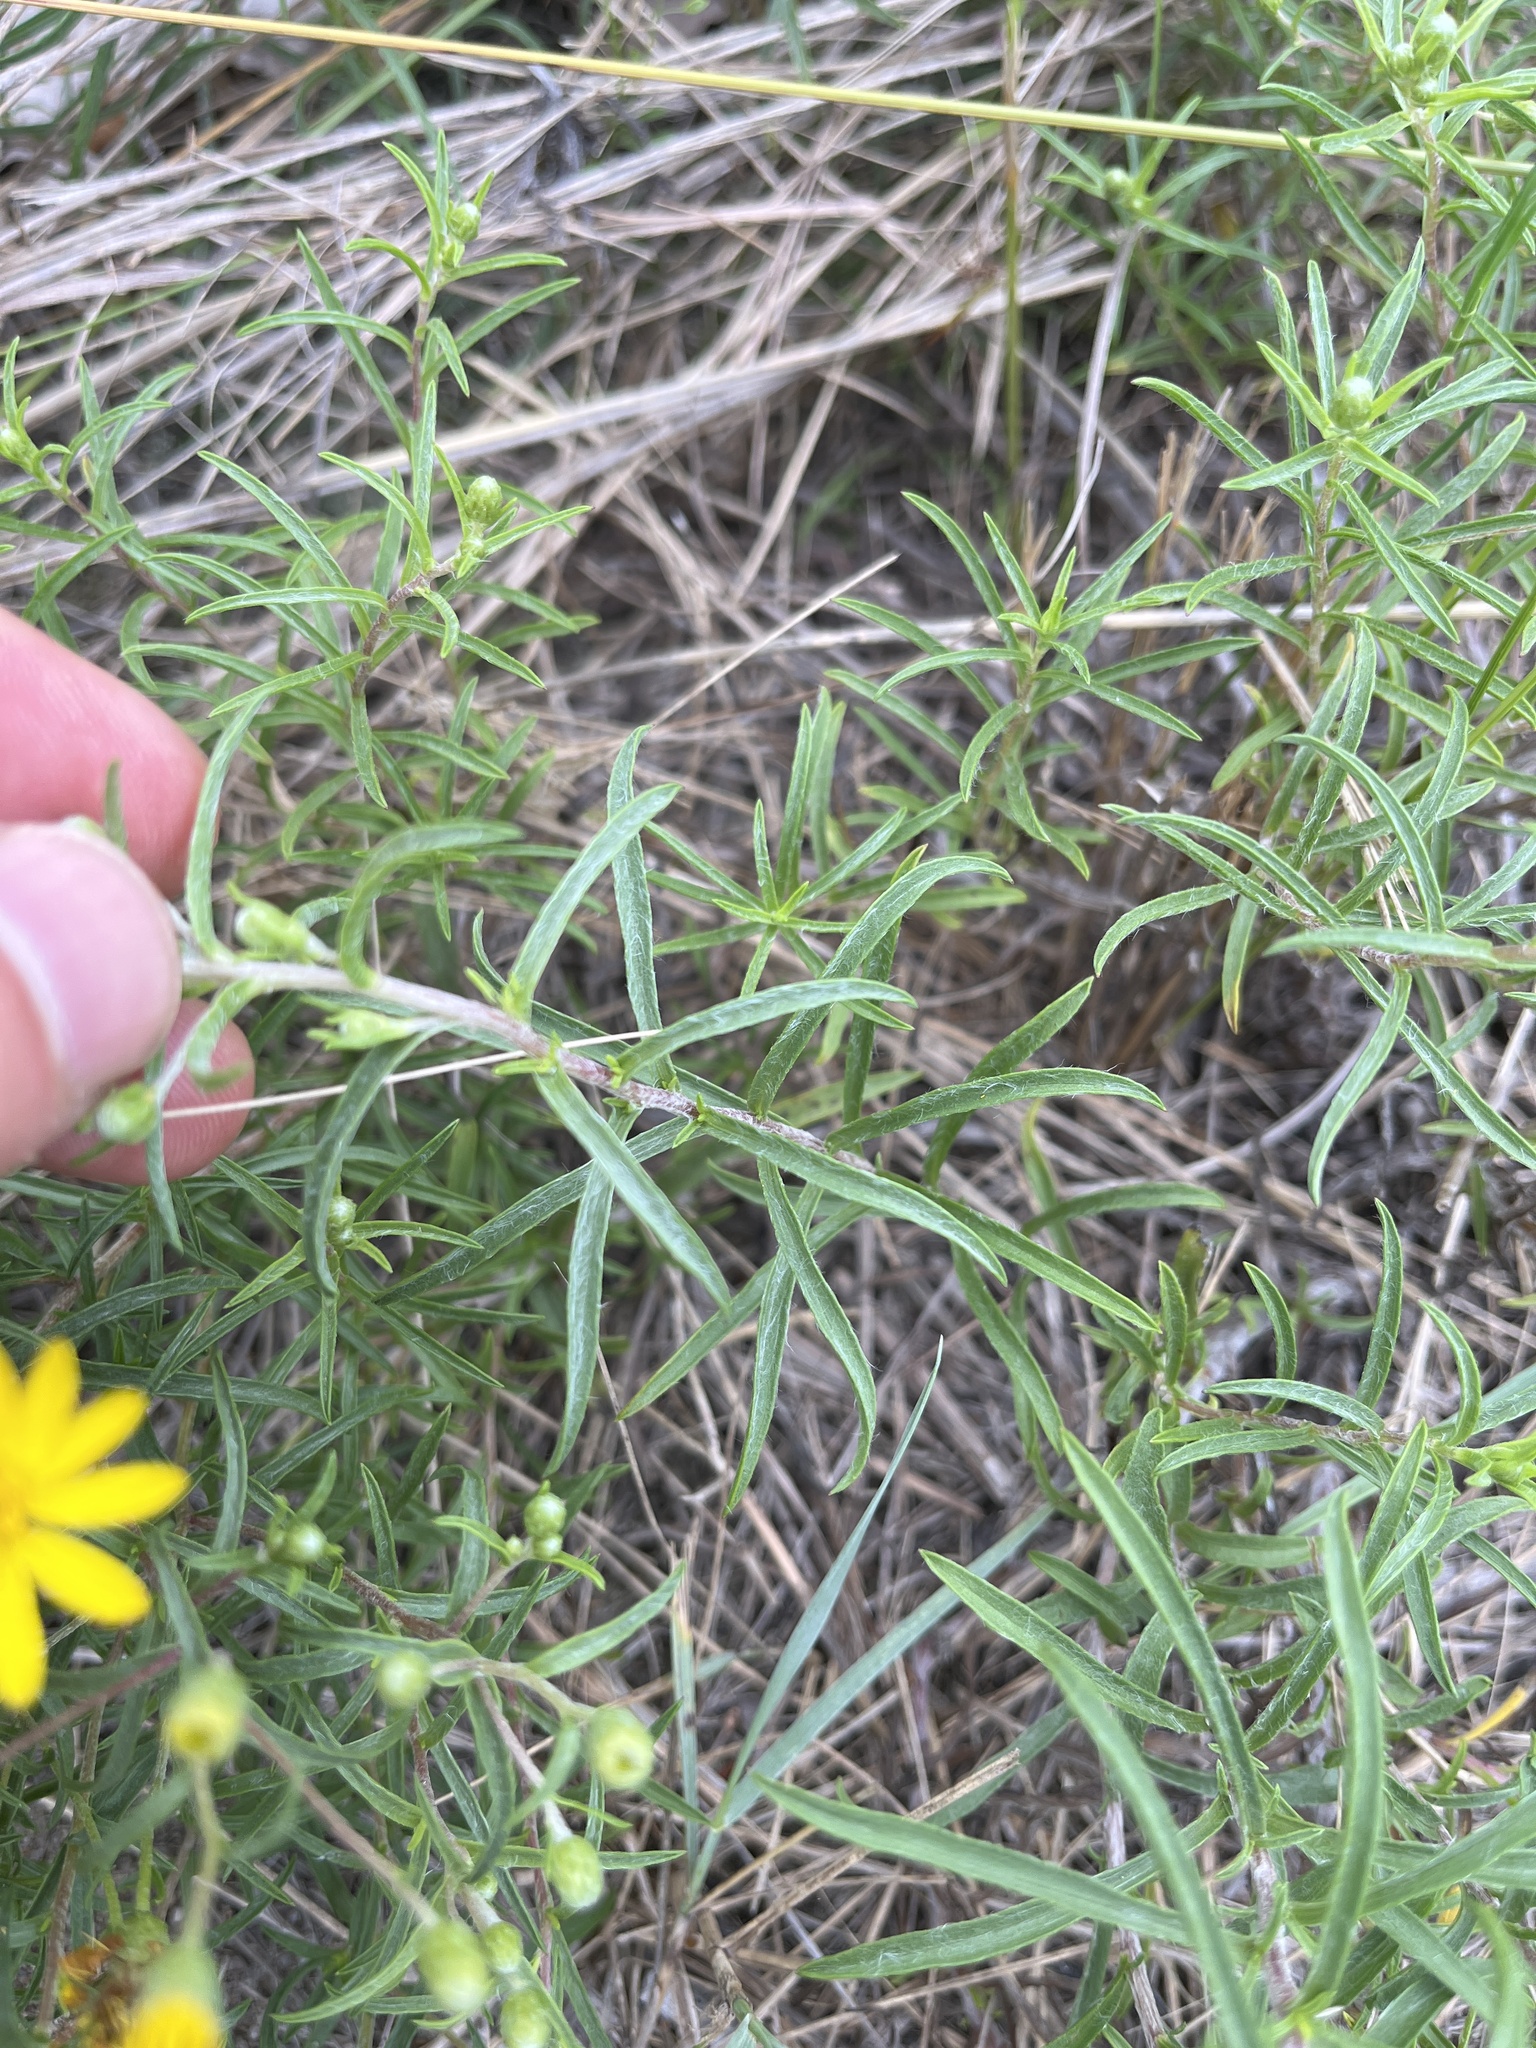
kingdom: Plantae
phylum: Tracheophyta
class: Magnoliopsida
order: Asterales
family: Asteraceae
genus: Pityopsis
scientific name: Pityopsis falcata
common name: Sickle-leaved goldenaster
